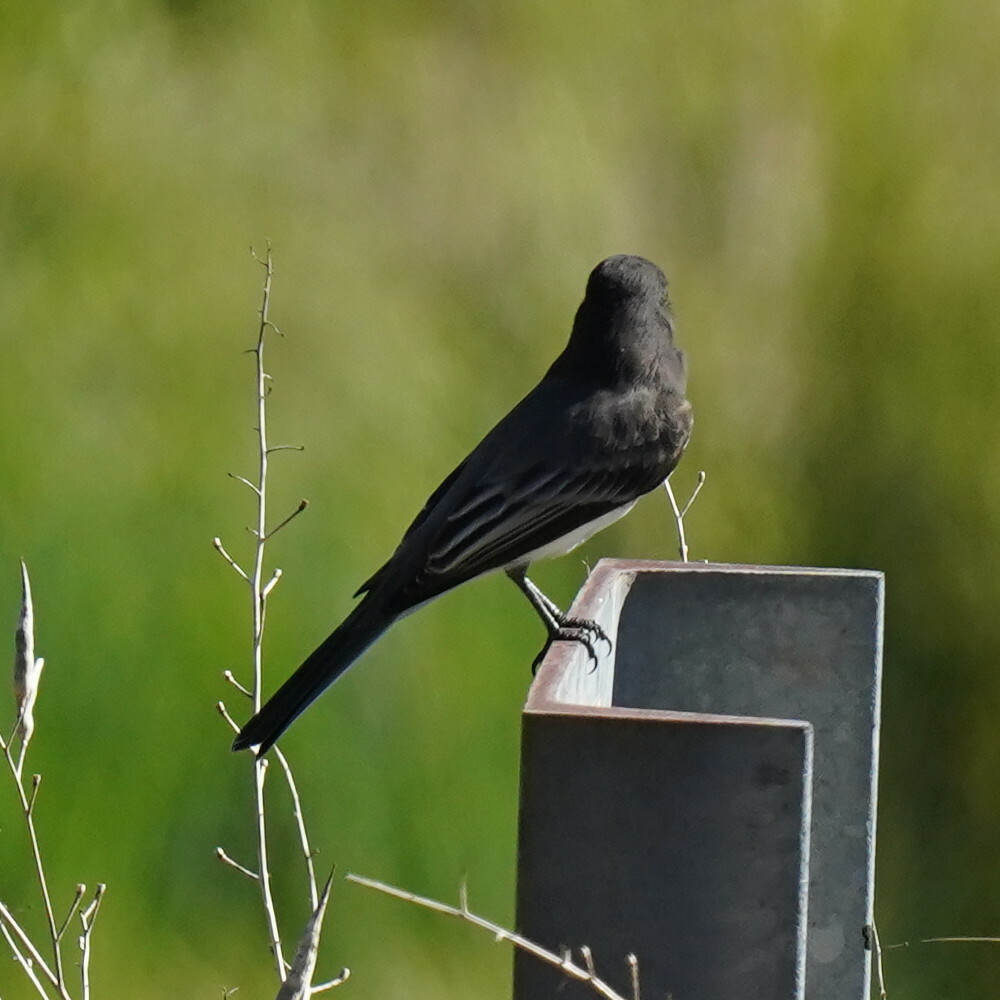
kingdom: Animalia
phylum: Chordata
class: Aves
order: Passeriformes
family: Tyrannidae
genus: Sayornis
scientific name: Sayornis nigricans
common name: Black phoebe
